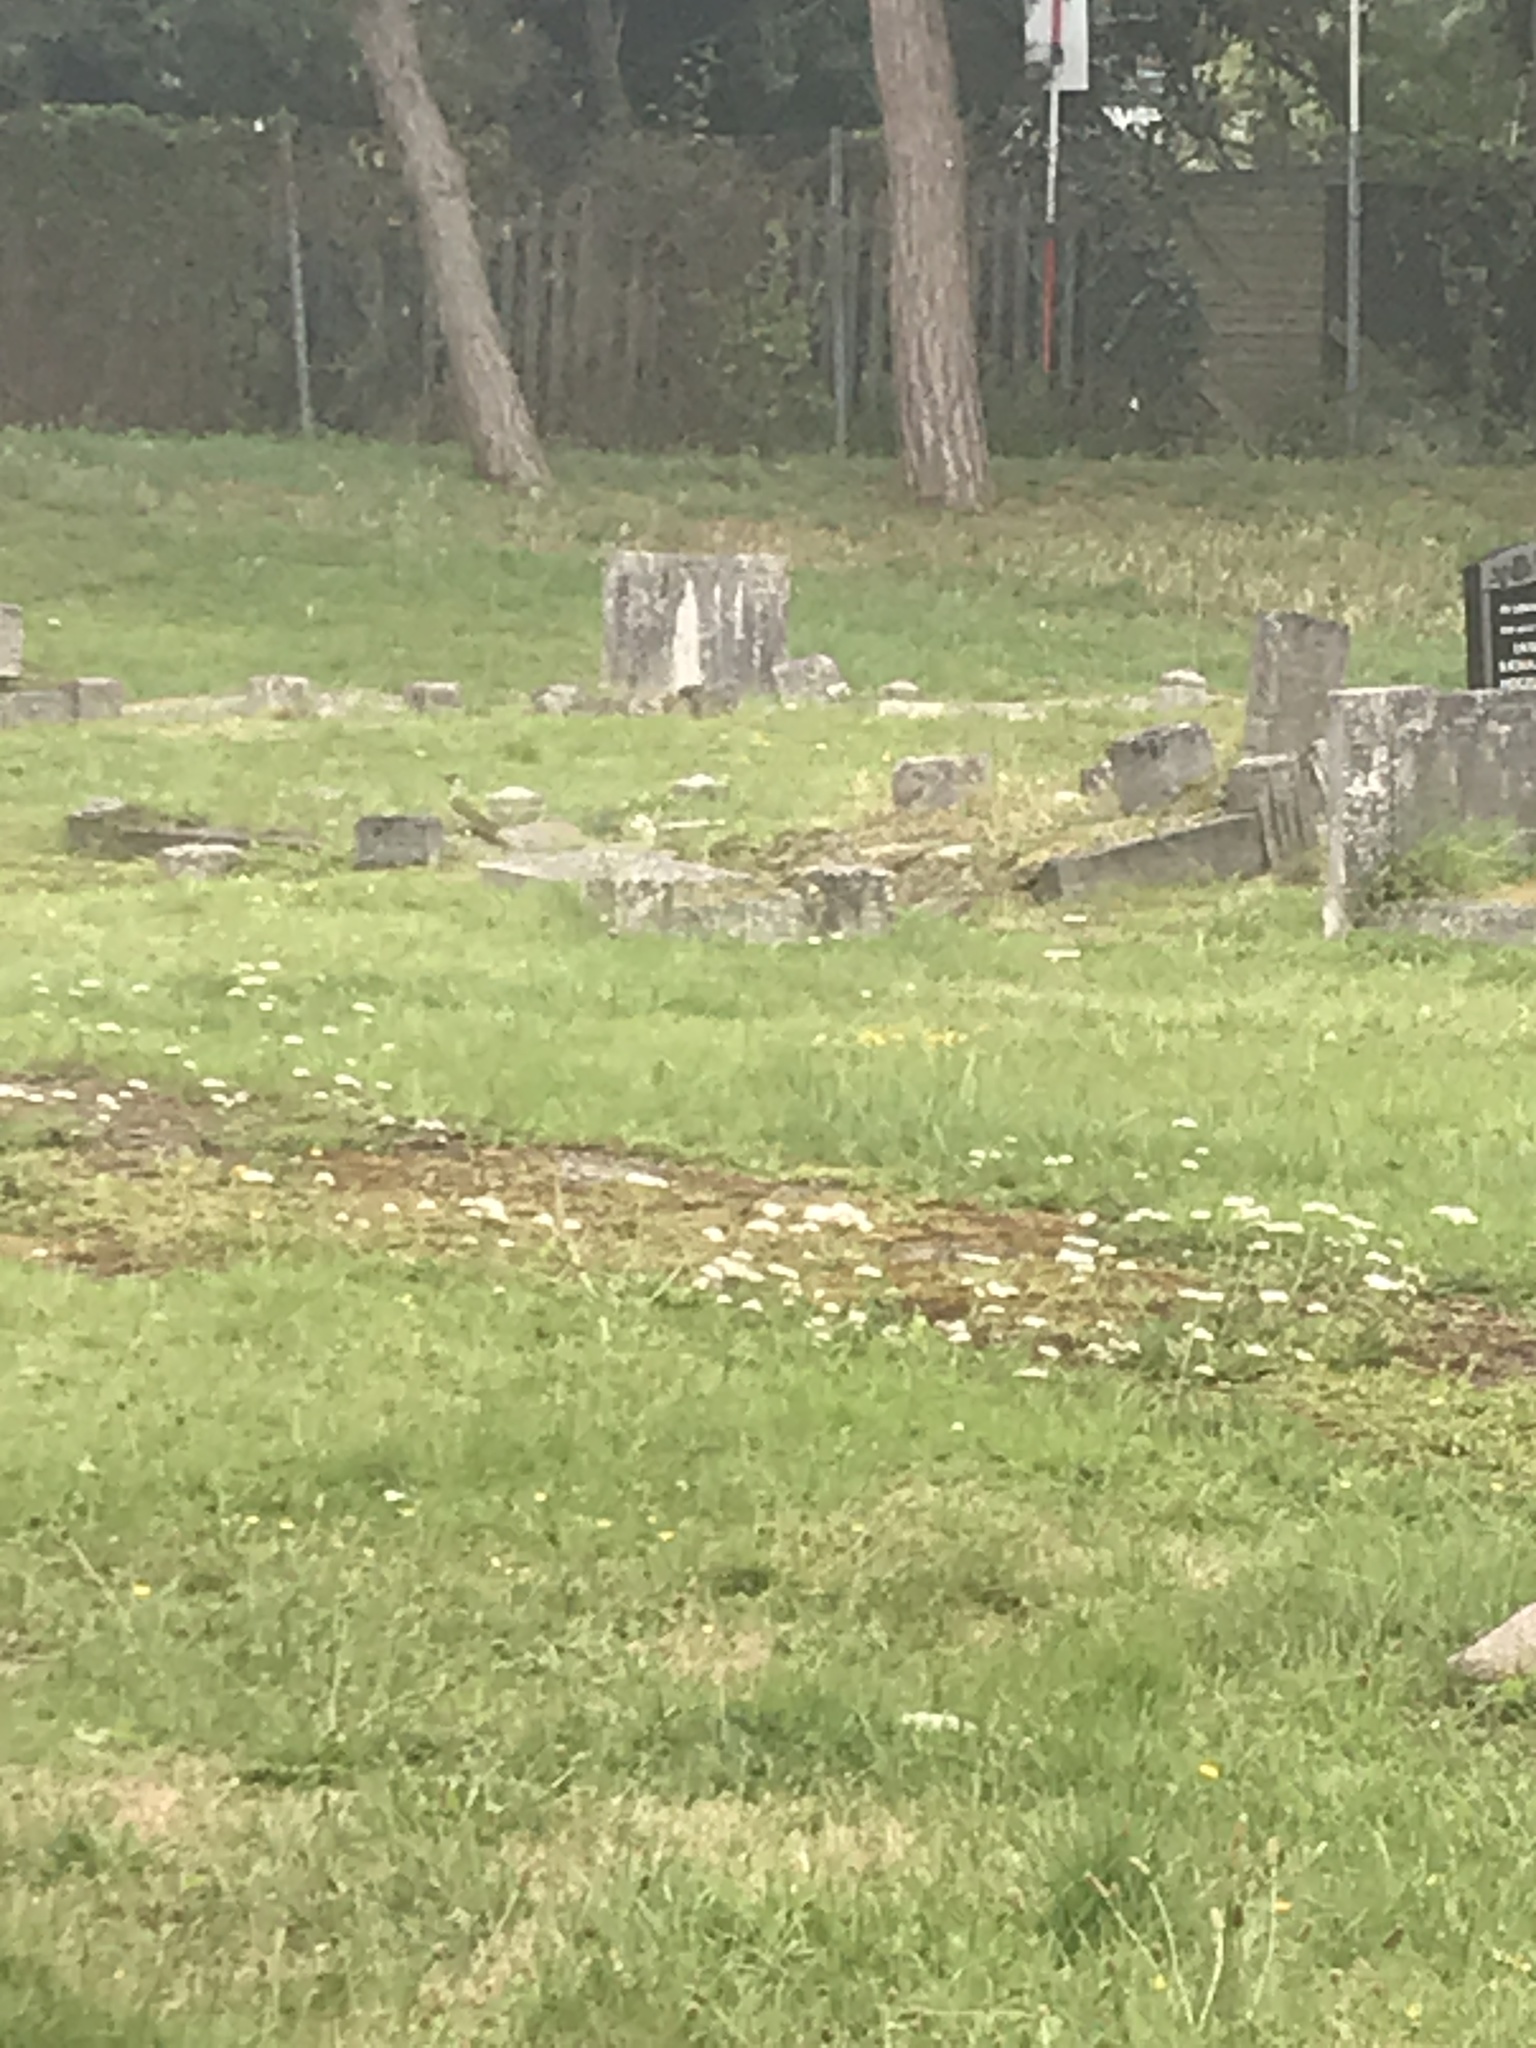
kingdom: Animalia
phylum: Chordata
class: Aves
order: Piciformes
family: Picidae
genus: Picus
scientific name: Picus viridis
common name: European green woodpecker
